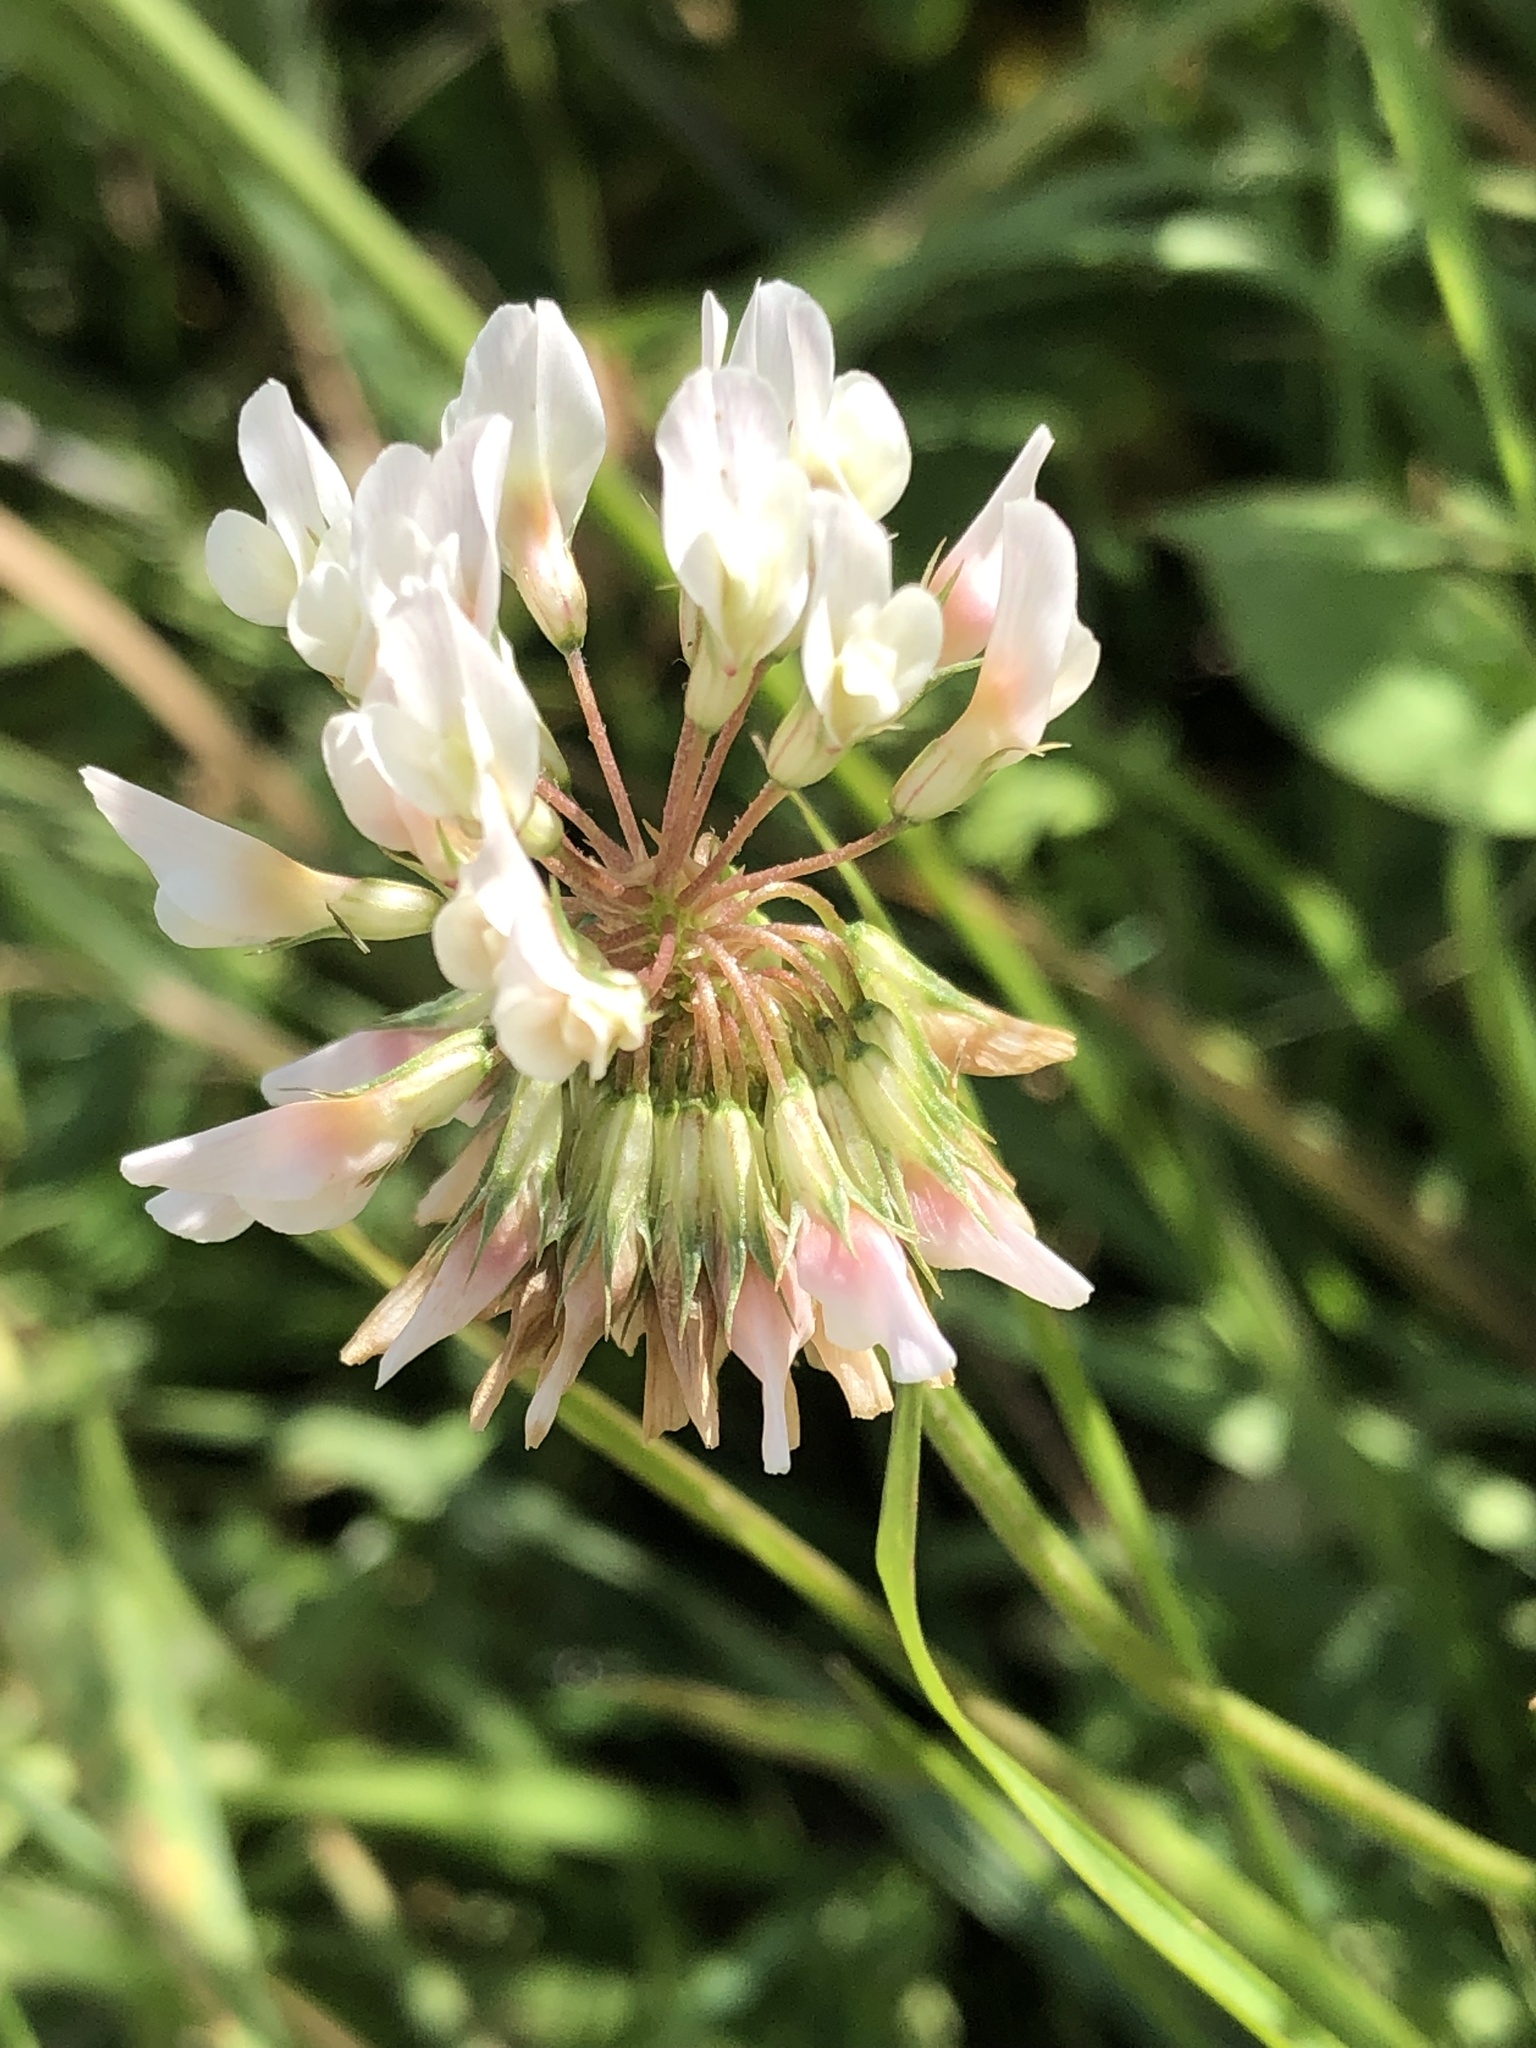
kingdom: Plantae
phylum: Tracheophyta
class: Magnoliopsida
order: Fabales
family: Fabaceae
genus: Trifolium
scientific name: Trifolium repens
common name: White clover
